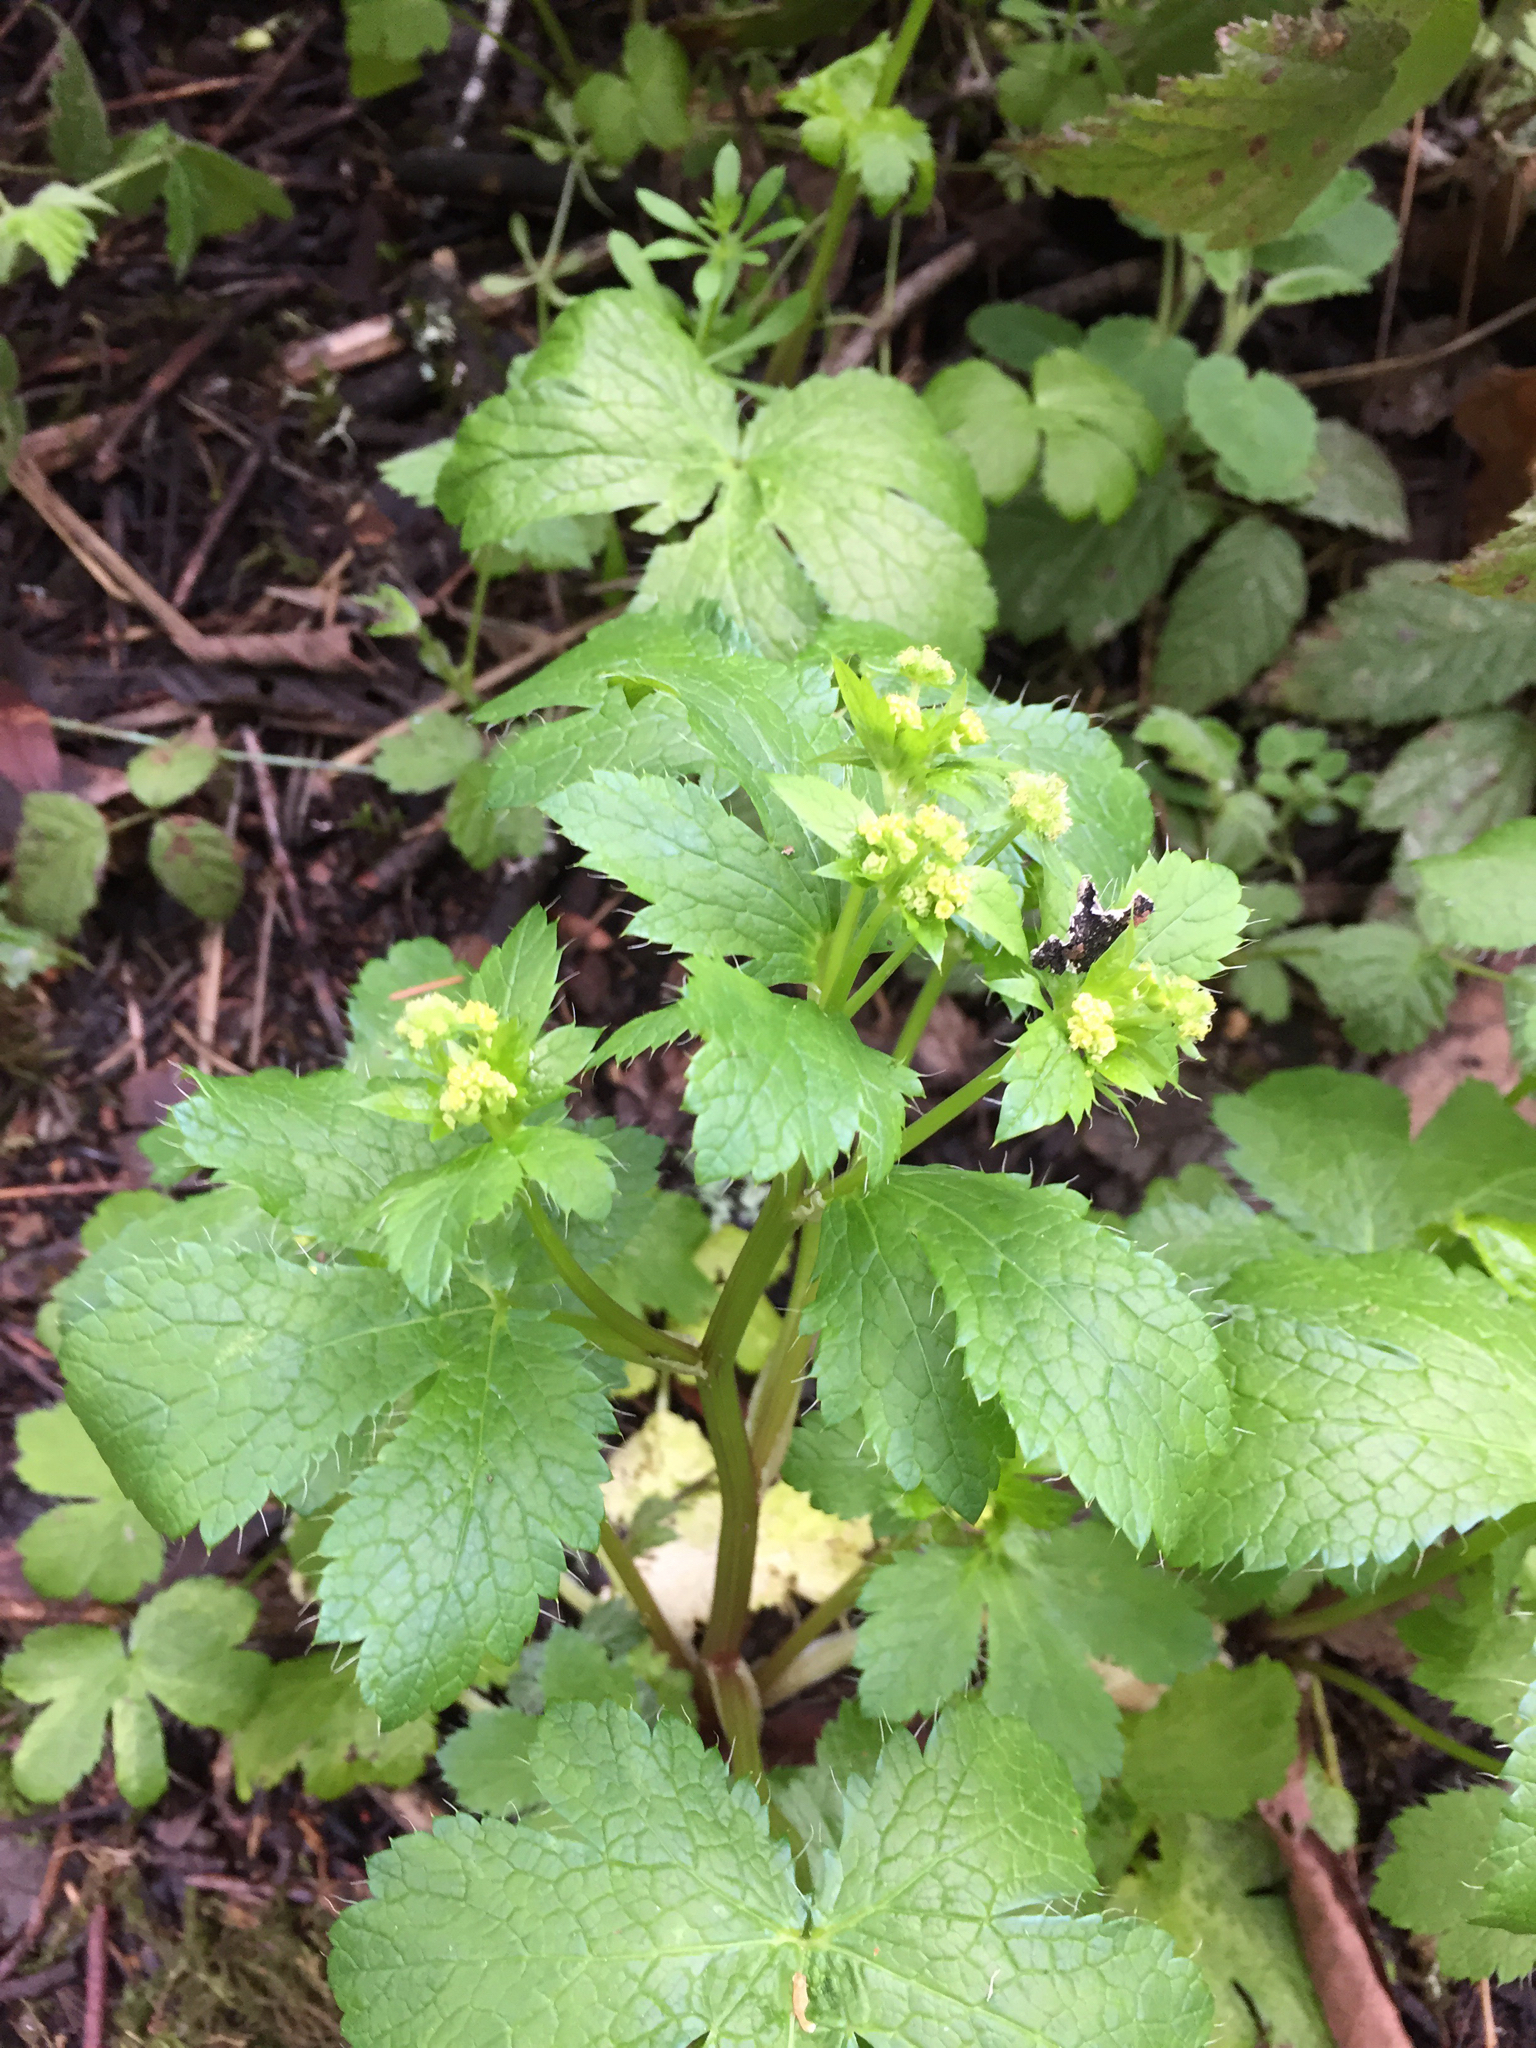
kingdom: Plantae
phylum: Tracheophyta
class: Magnoliopsida
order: Apiales
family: Apiaceae
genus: Sanicula
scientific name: Sanicula crassicaulis
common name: Western snakeroot
